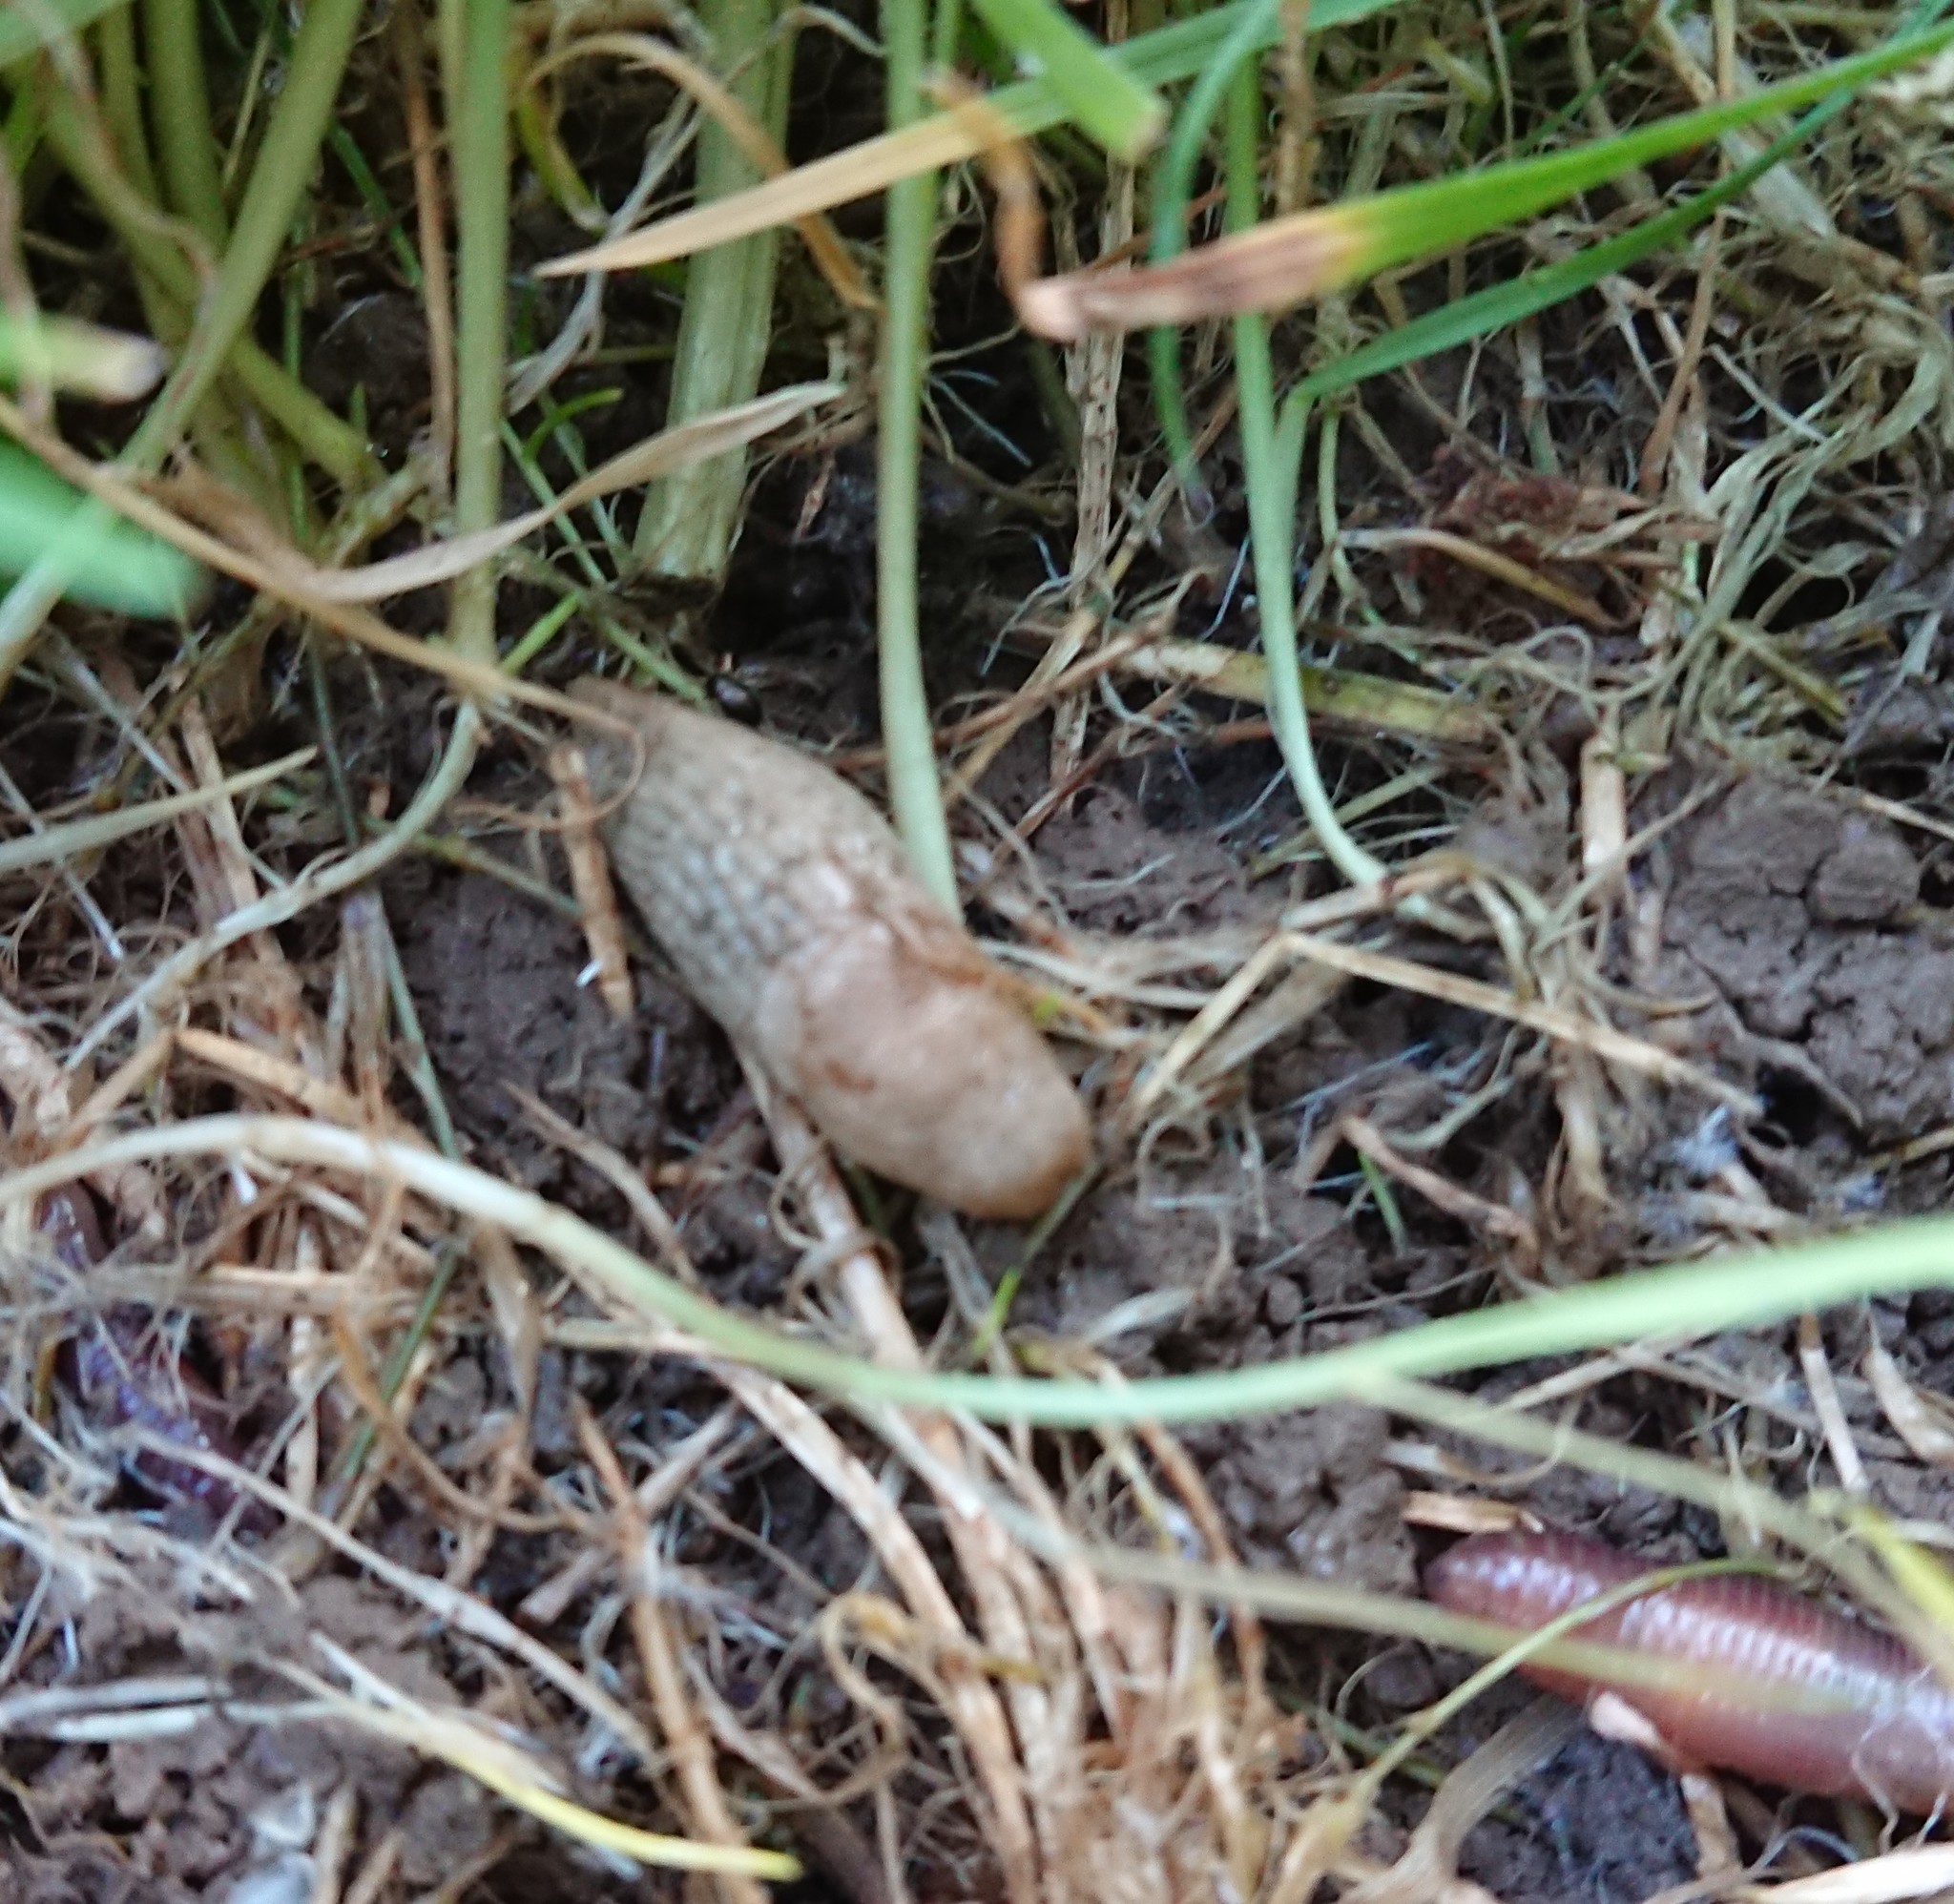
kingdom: Animalia
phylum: Mollusca
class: Gastropoda
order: Stylommatophora
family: Agriolimacidae
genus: Deroceras
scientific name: Deroceras reticulatum
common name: Gray field slug
